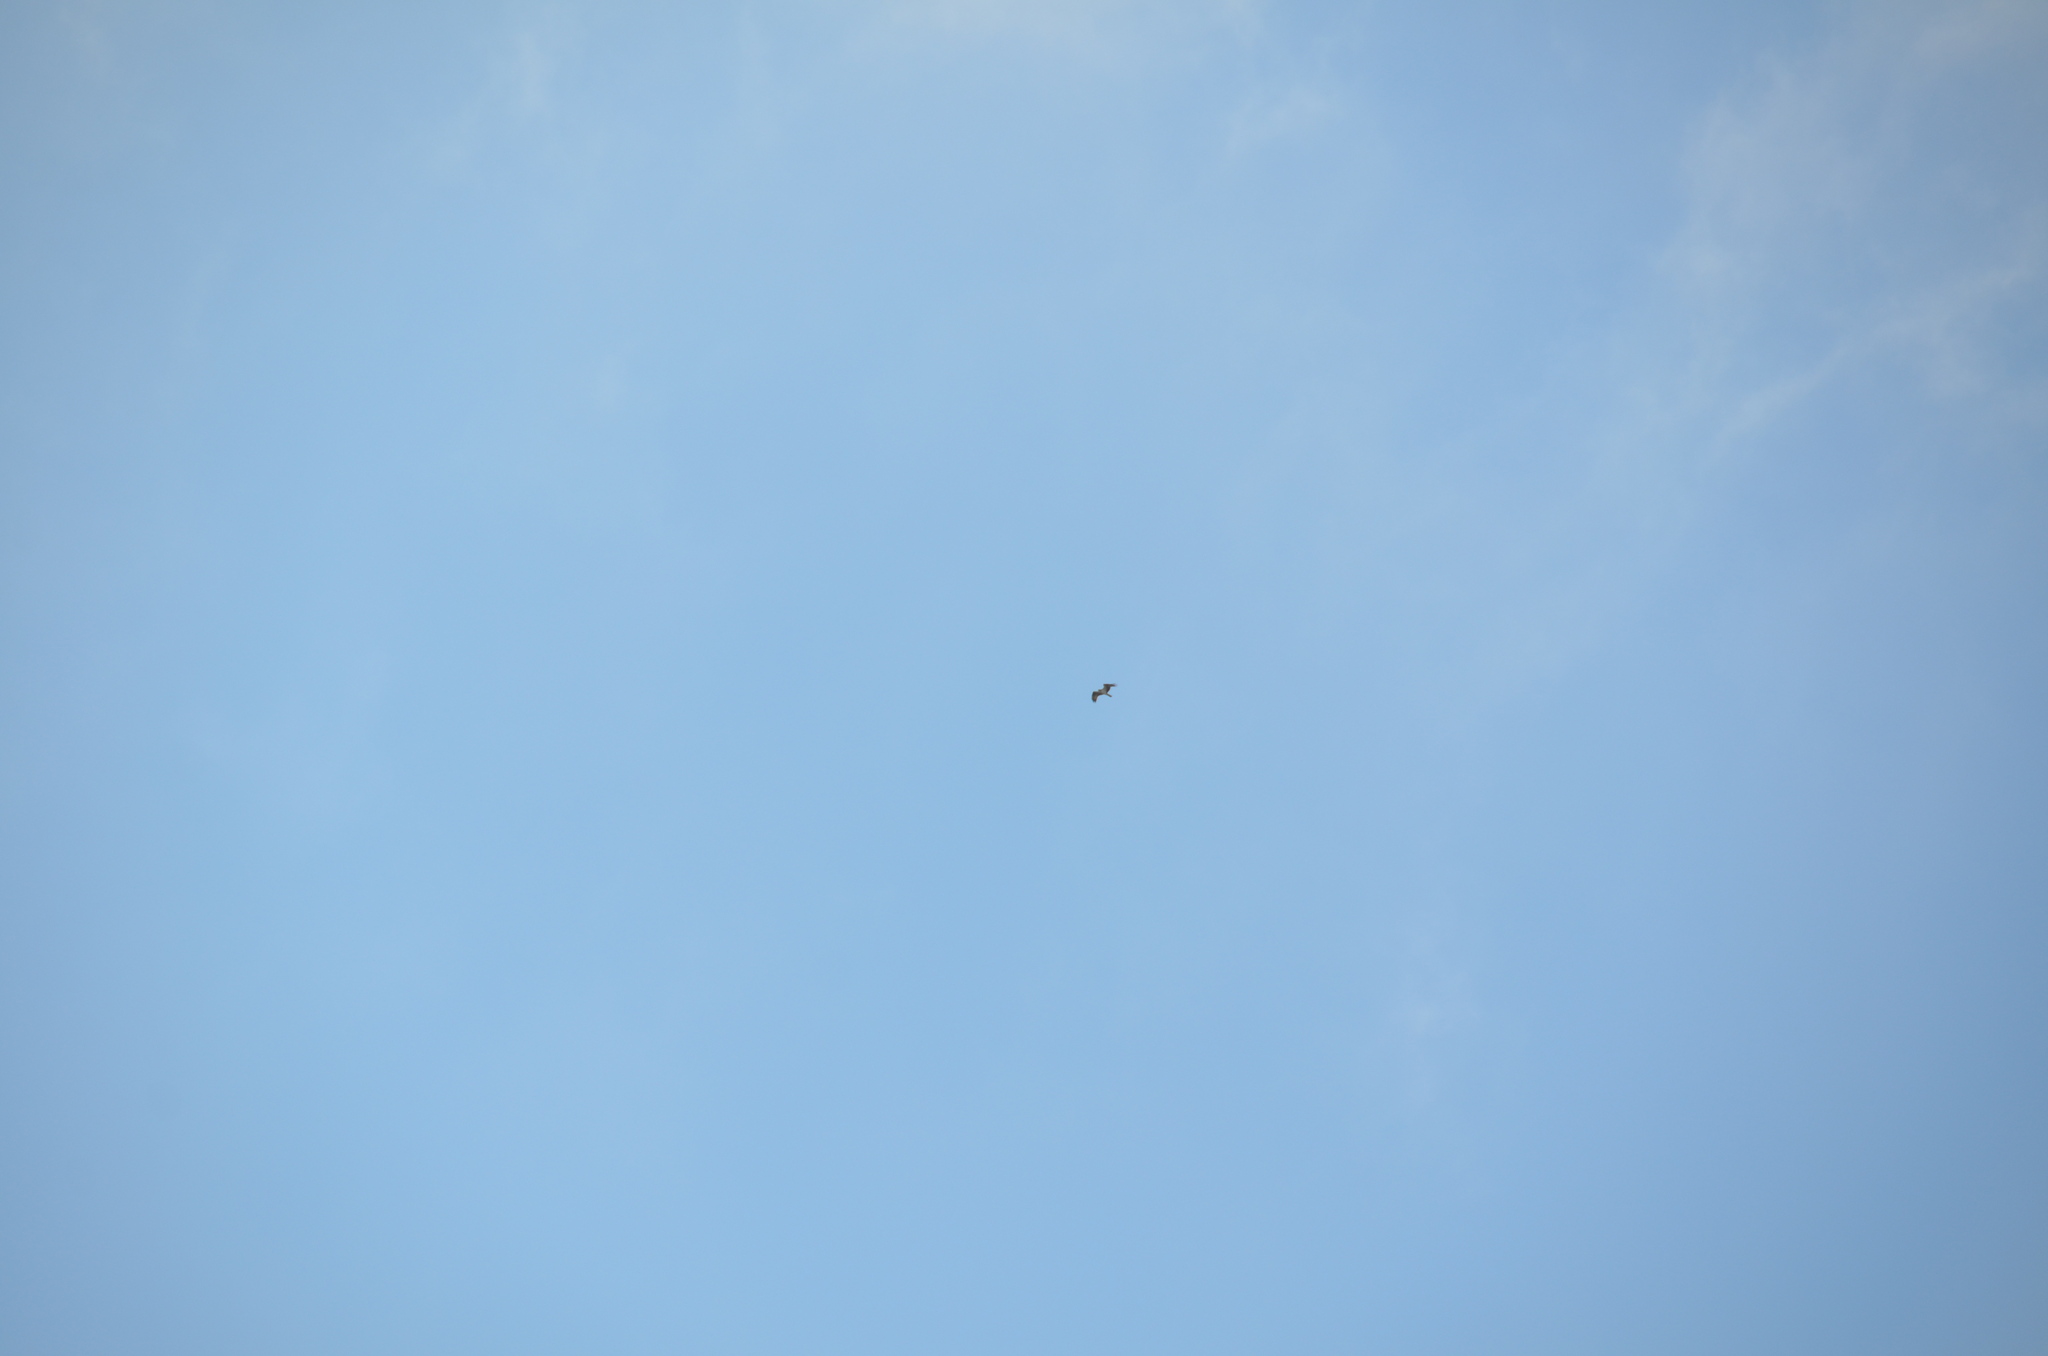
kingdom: Animalia
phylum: Chordata
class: Aves
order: Accipitriformes
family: Pandionidae
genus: Pandion
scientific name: Pandion haliaetus
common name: Osprey
